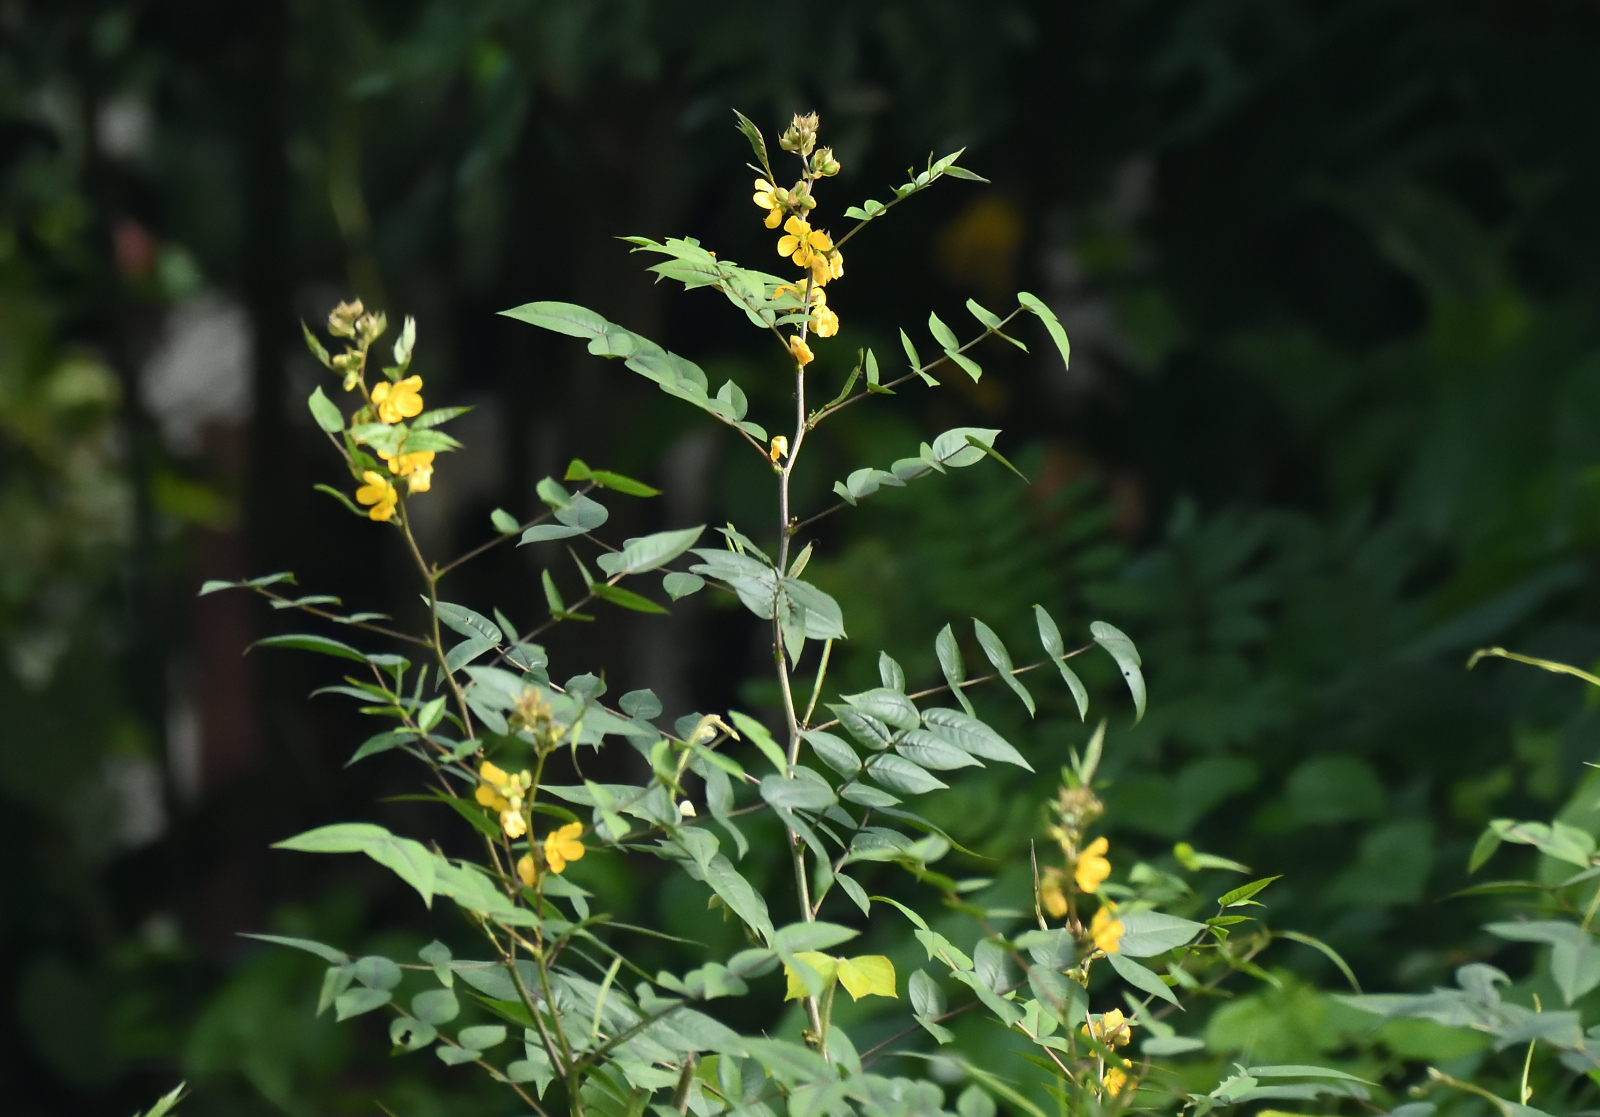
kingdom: Plantae
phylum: Tracheophyta
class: Magnoliopsida
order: Fabales
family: Fabaceae
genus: Senna
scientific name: Senna occidentalis
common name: Septicweed
